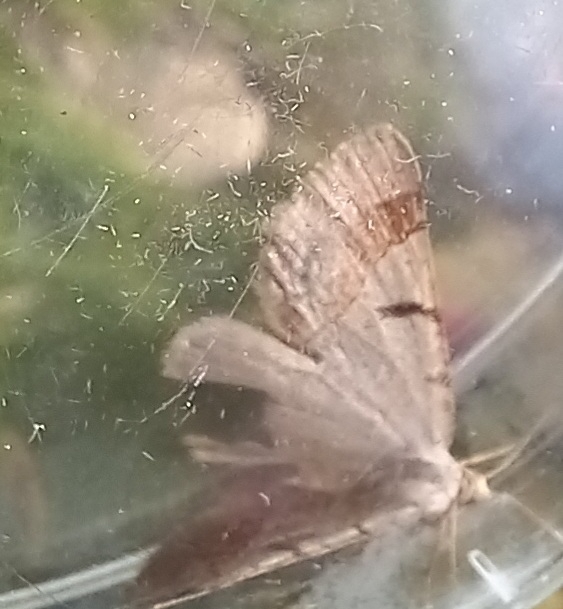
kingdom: Animalia
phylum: Arthropoda
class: Insecta
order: Lepidoptera
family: Geometridae
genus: Itame
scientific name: Itame vincularia
